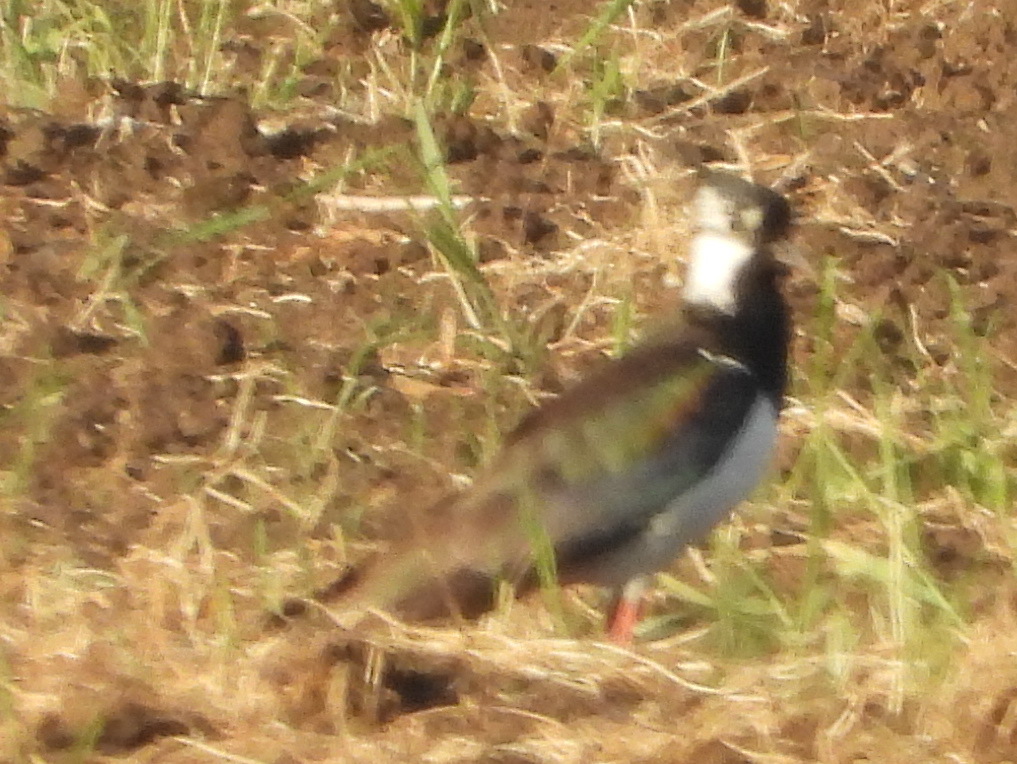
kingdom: Animalia
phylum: Chordata
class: Aves
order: Charadriiformes
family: Charadriidae
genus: Vanellus
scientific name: Vanellus vanellus
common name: Northern lapwing
